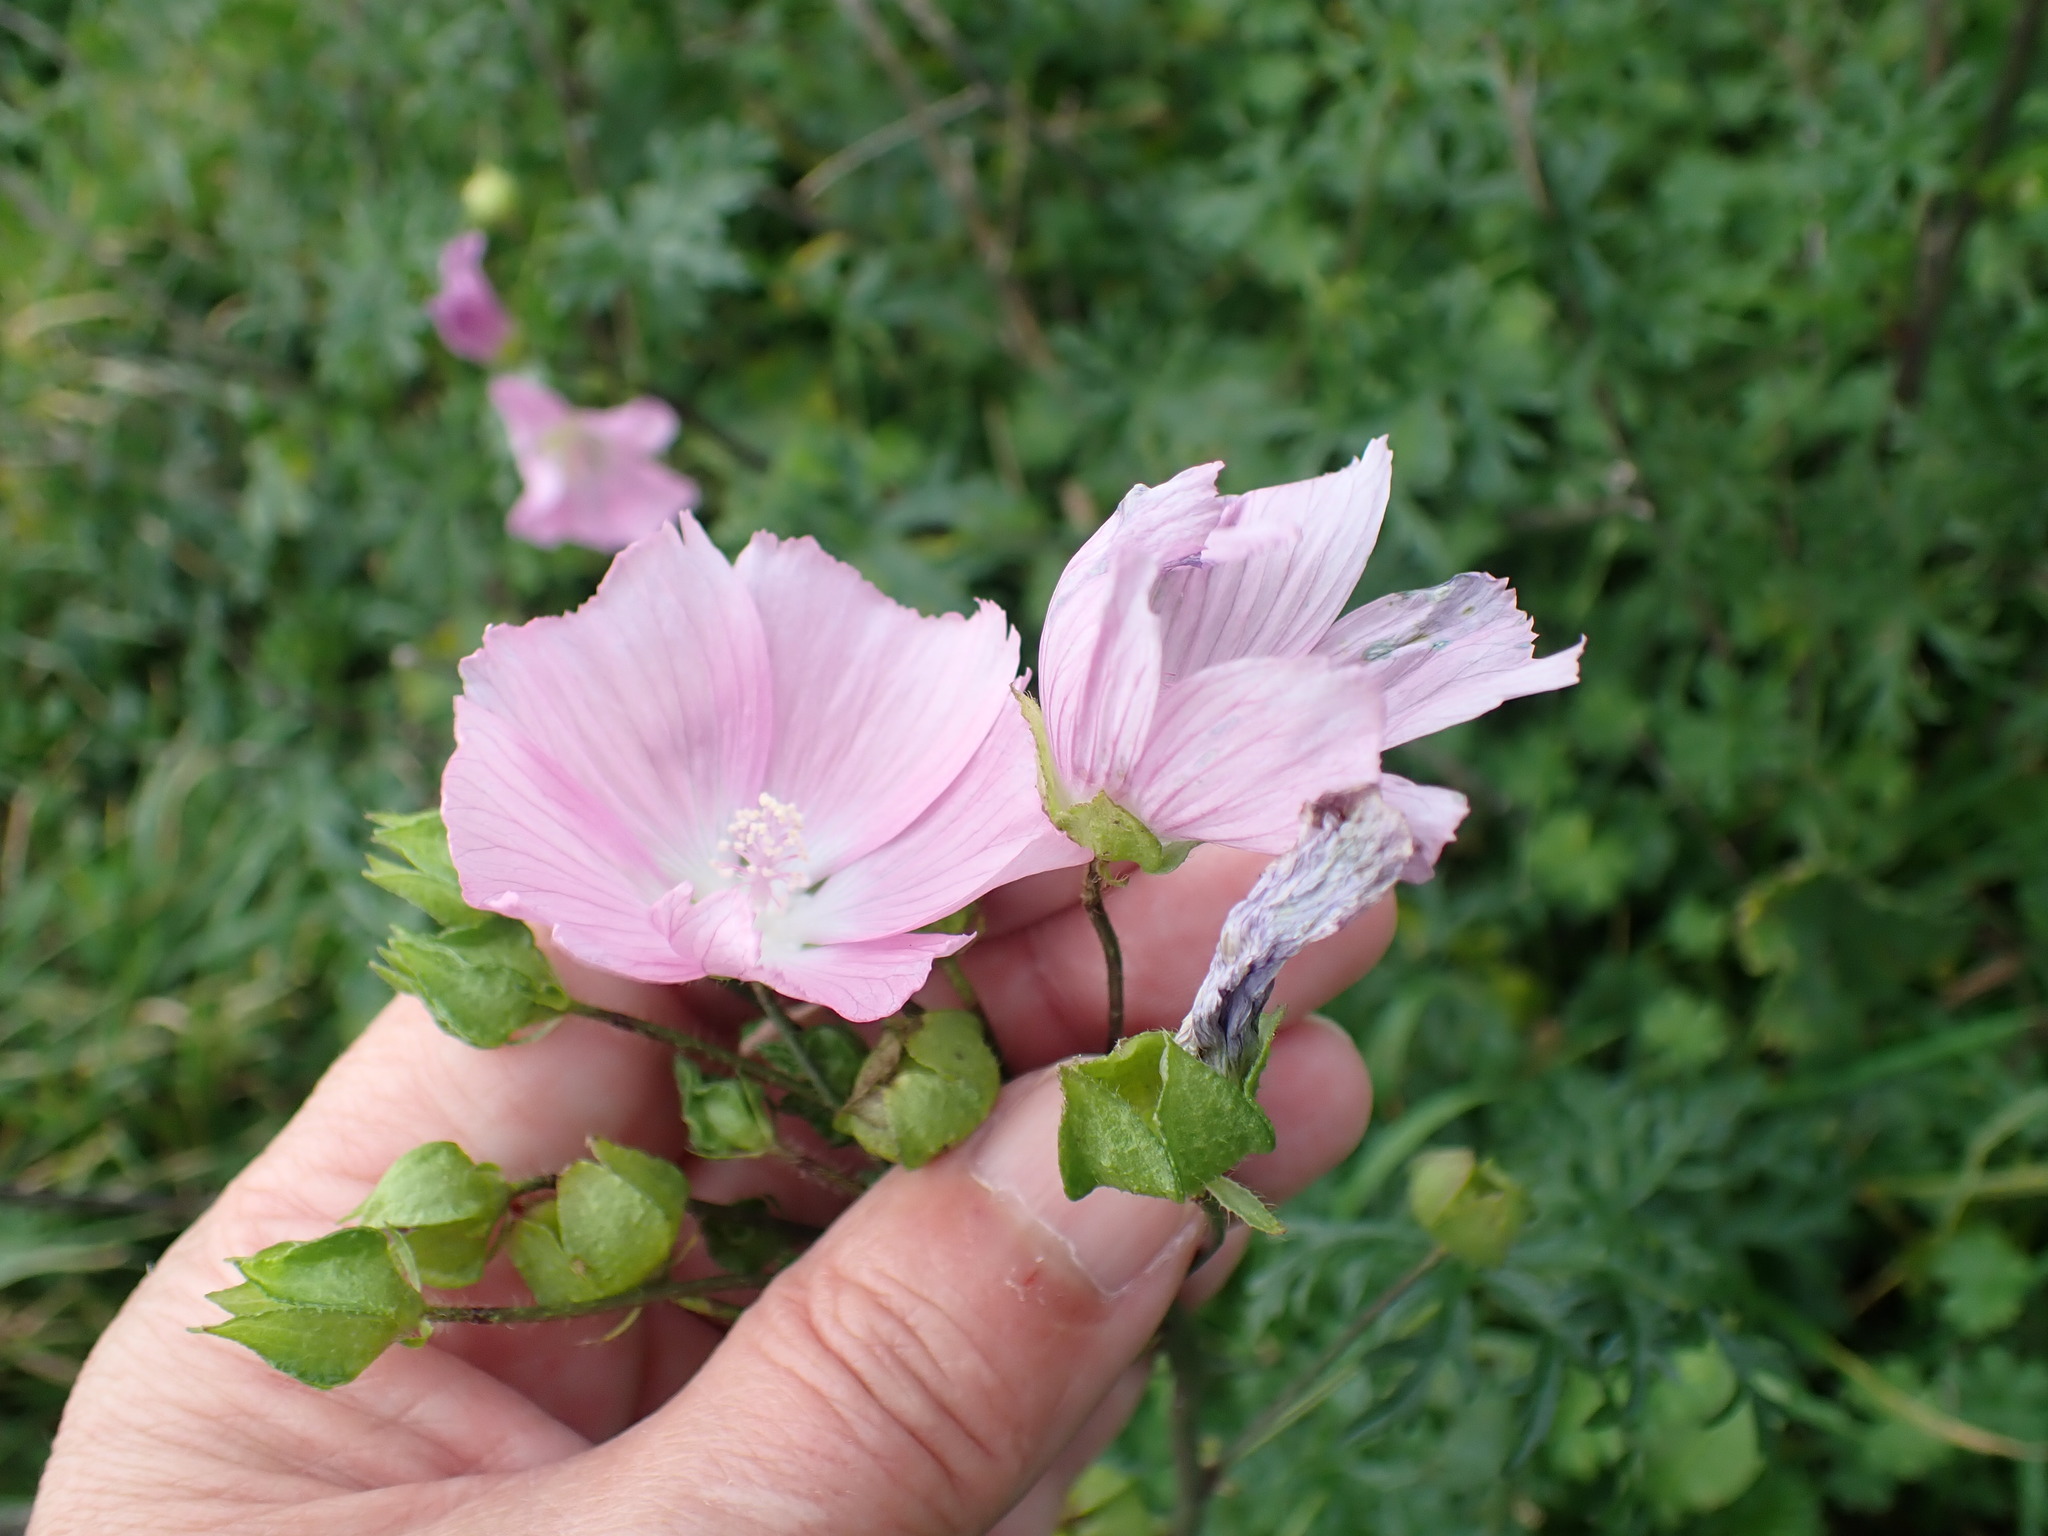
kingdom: Plantae
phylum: Tracheophyta
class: Magnoliopsida
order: Malvales
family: Malvaceae
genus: Malva
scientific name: Malva moschata
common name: Musk mallow
